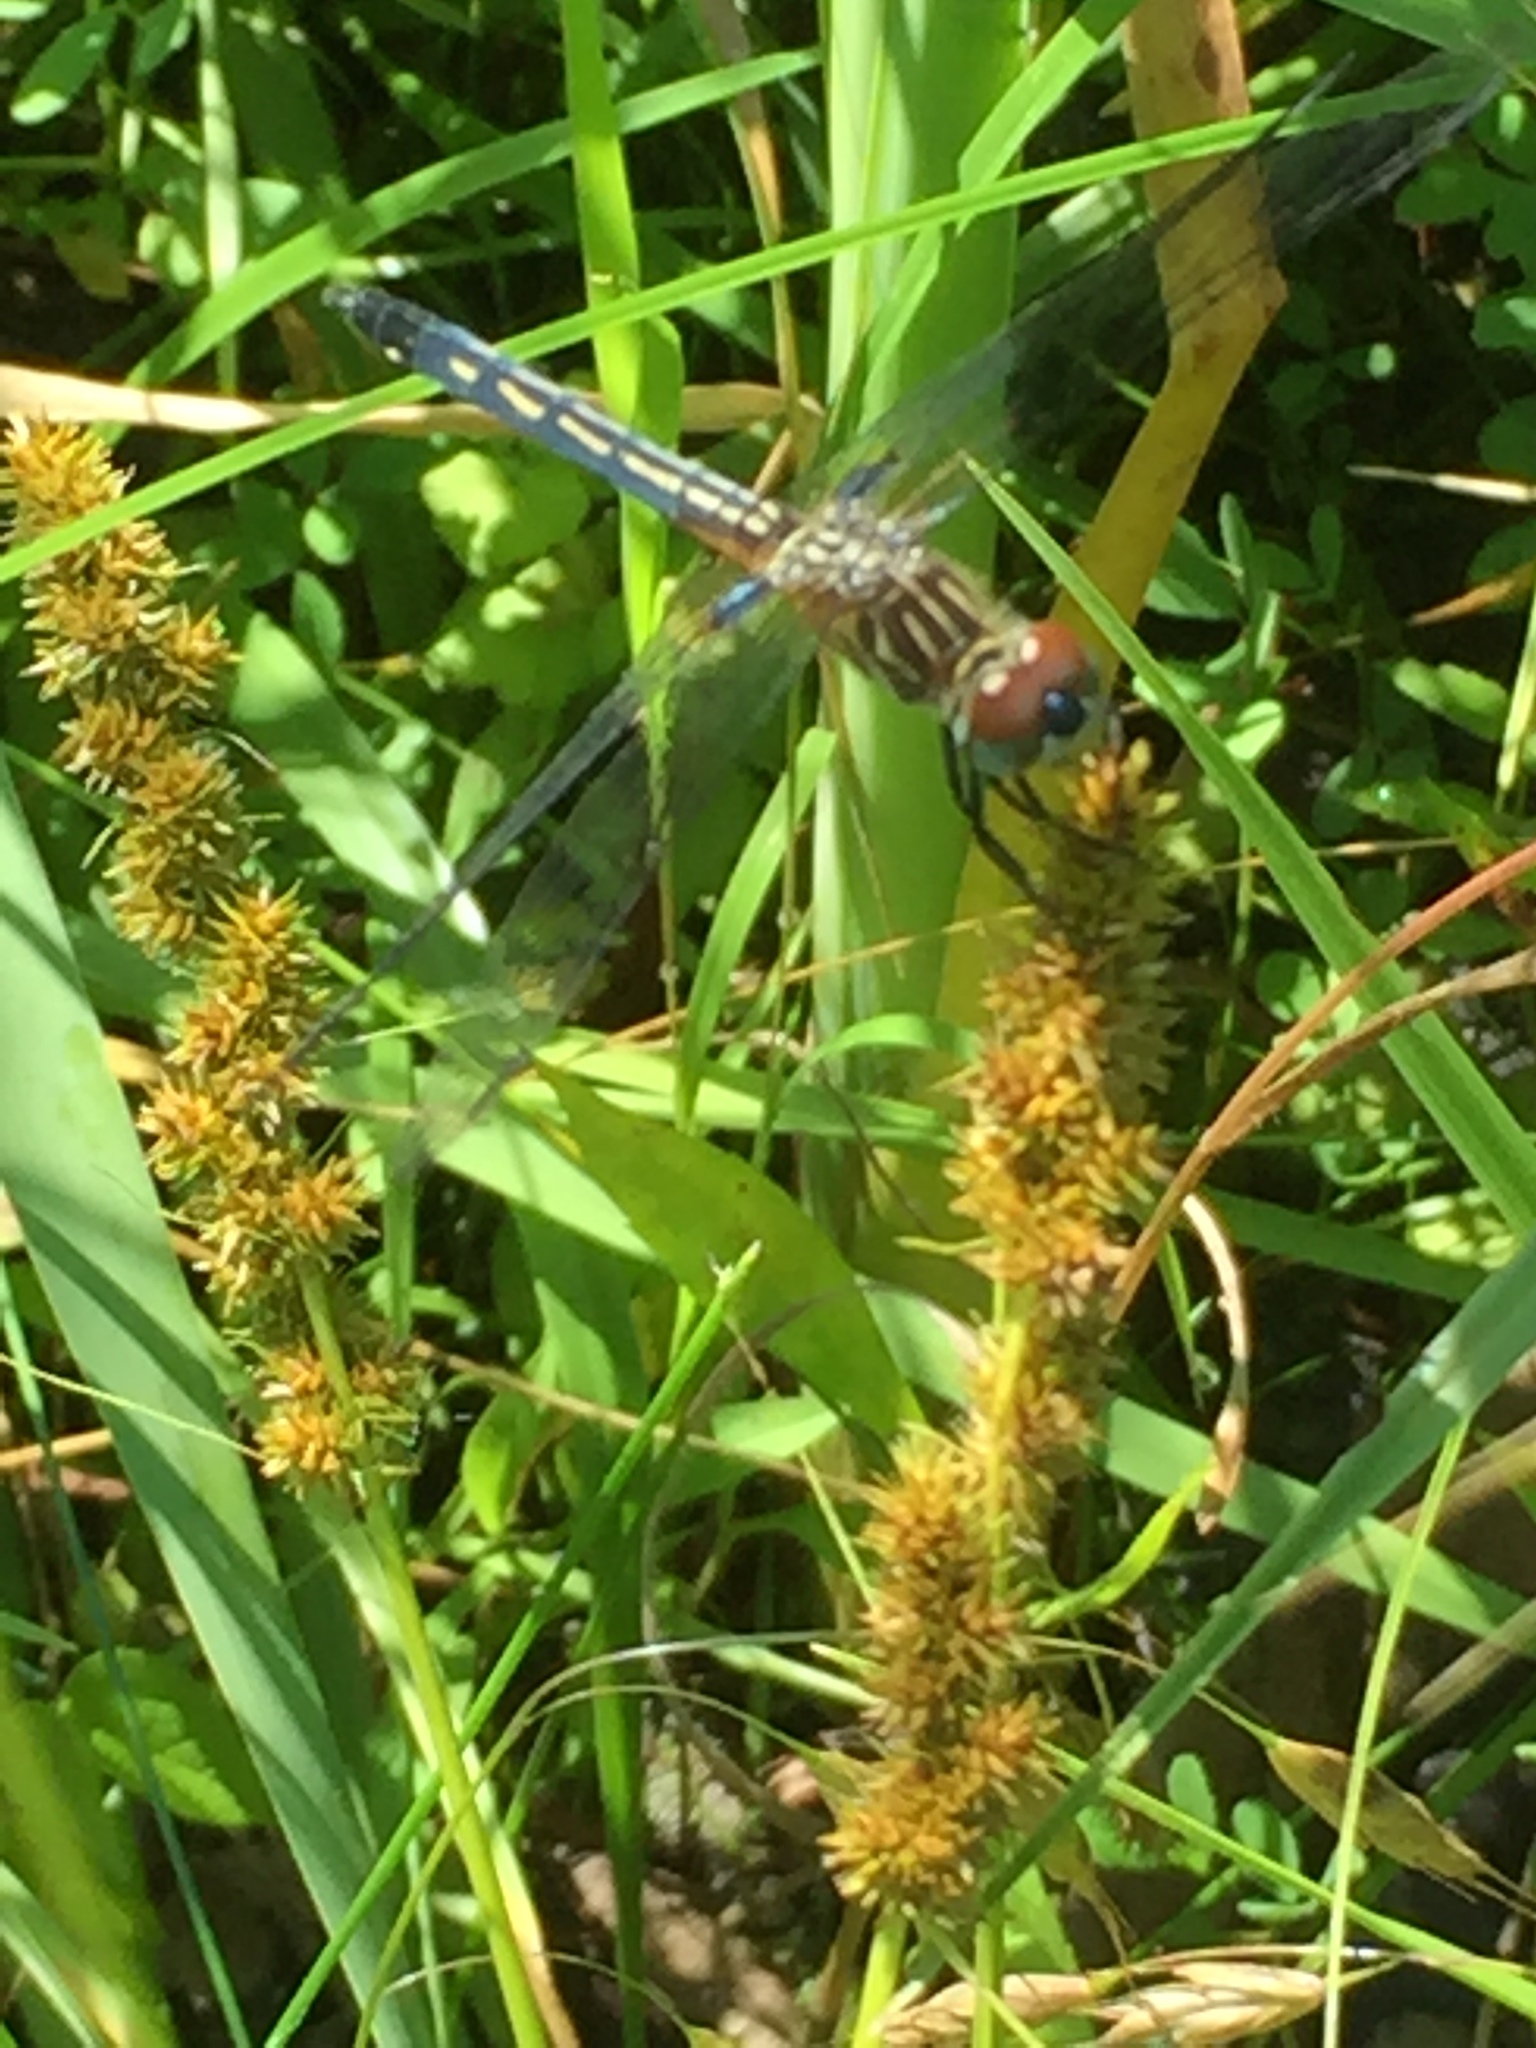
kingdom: Animalia
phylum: Arthropoda
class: Insecta
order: Odonata
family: Libellulidae
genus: Pachydiplax
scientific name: Pachydiplax longipennis
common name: Blue dasher
